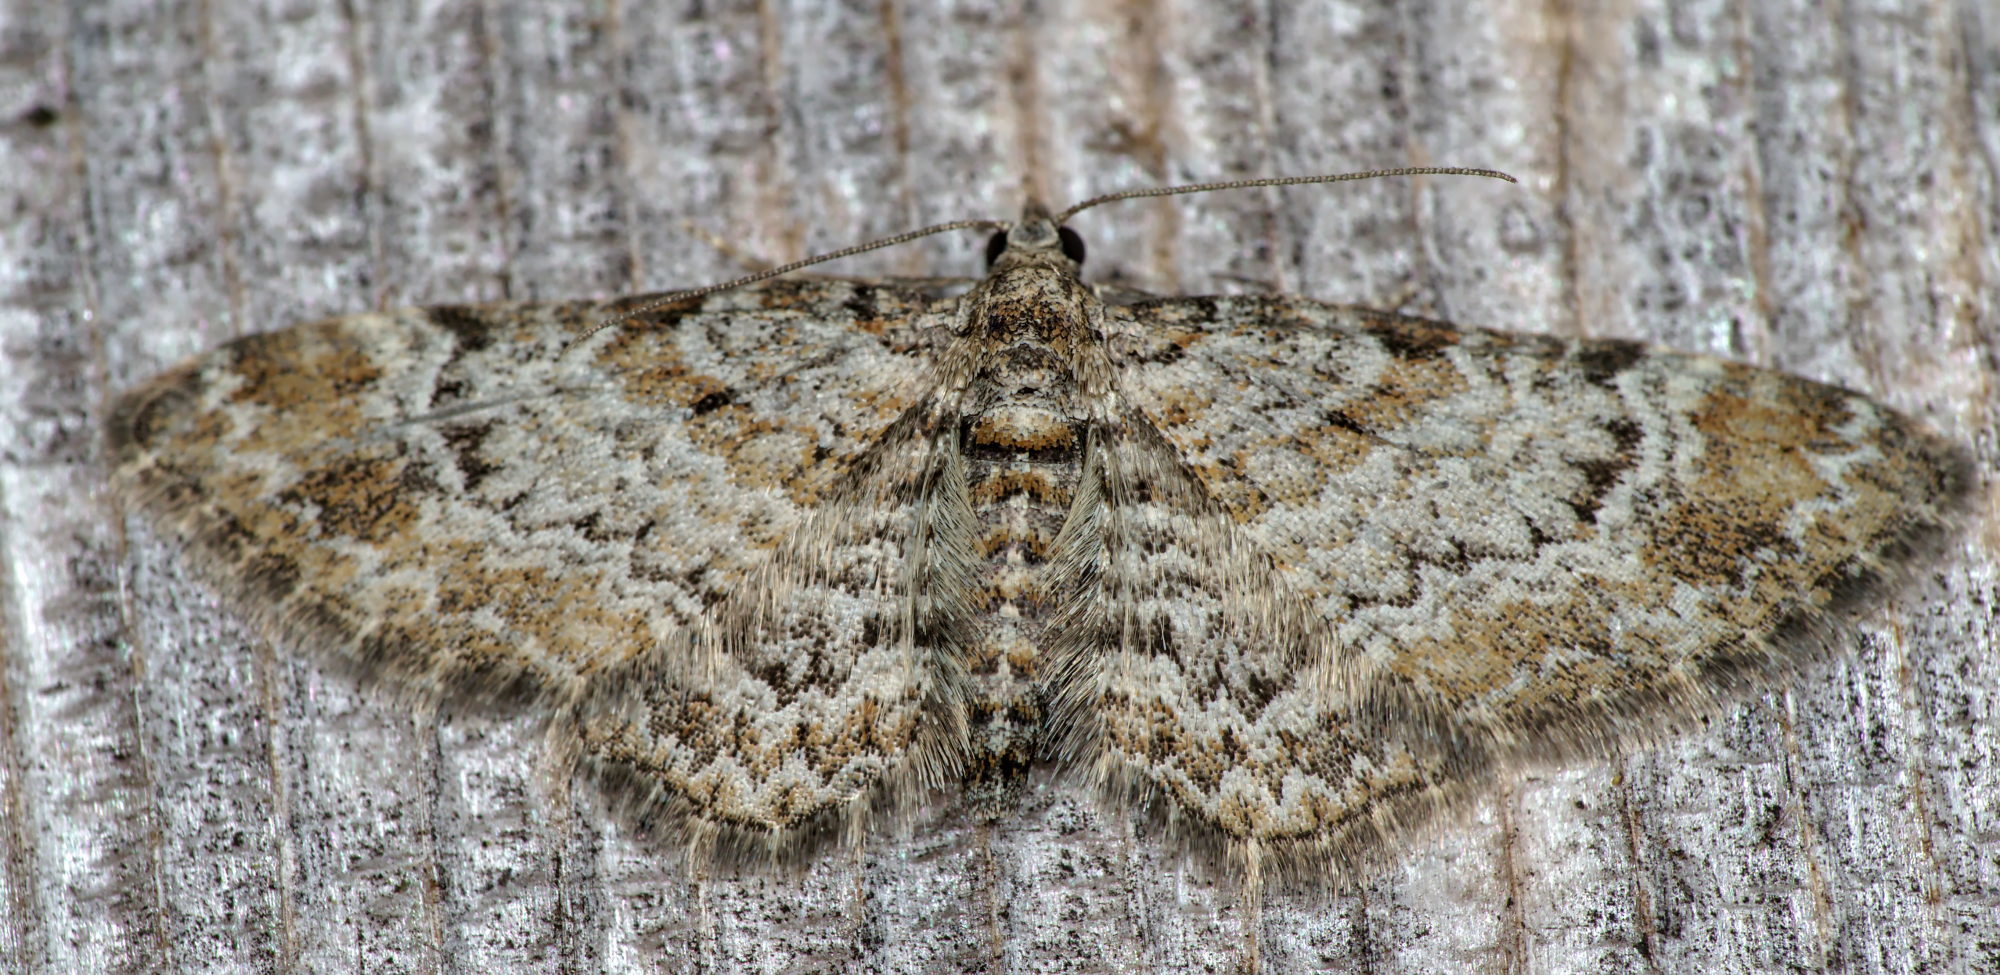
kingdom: Animalia
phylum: Arthropoda
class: Insecta
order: Lepidoptera
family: Geometridae
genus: Gymnoscelis
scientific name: Gymnoscelis rufifasciata
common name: Double-striped pug
